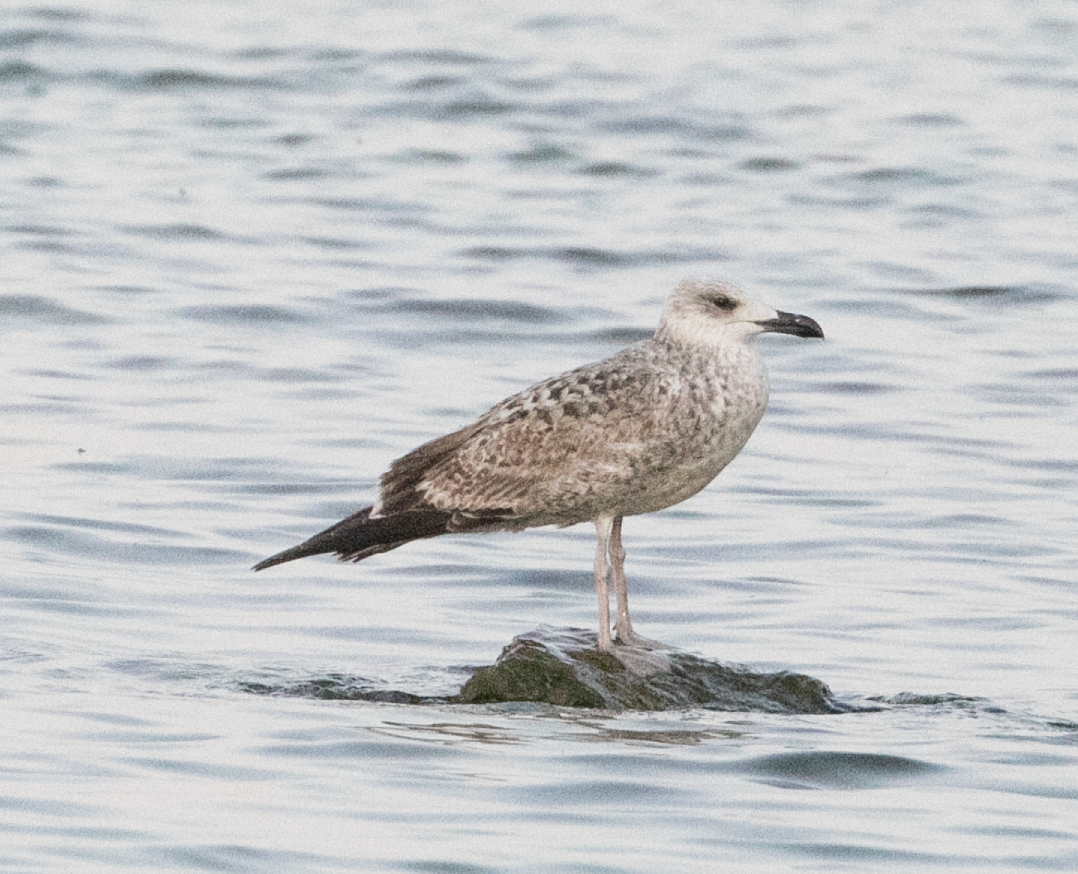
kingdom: Animalia
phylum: Chordata
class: Aves
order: Charadriiformes
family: Laridae
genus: Larus
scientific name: Larus michahellis
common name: Yellow-legged gull
